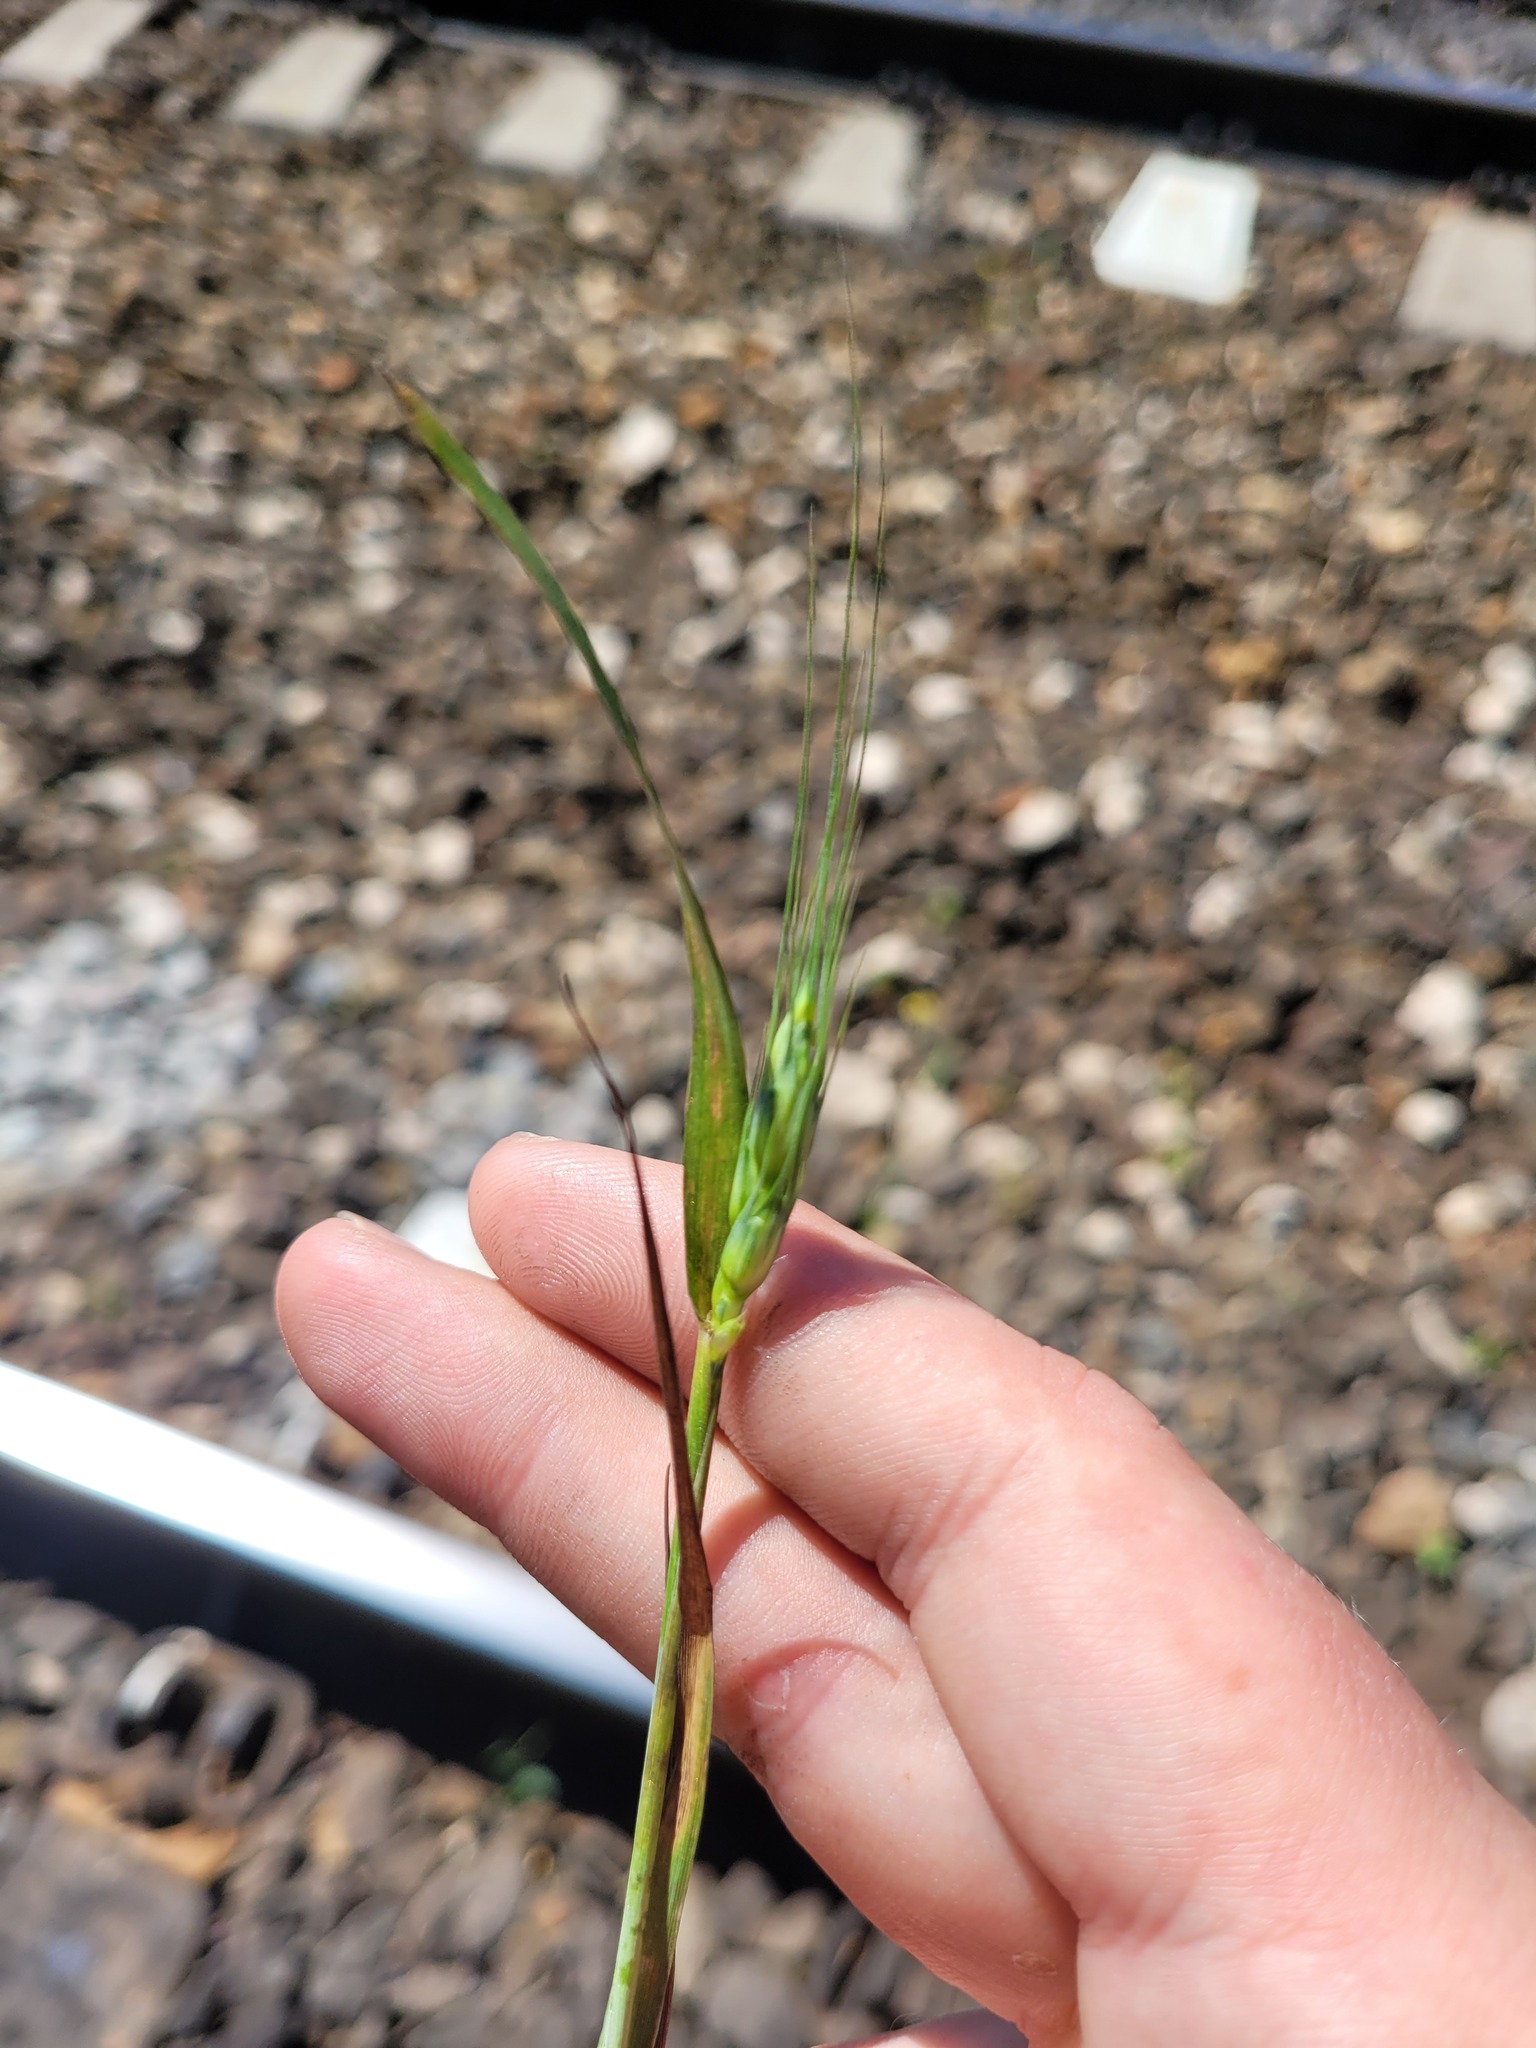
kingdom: Plantae
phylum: Tracheophyta
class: Liliopsida
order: Poales
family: Poaceae
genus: Triticum
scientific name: Triticum aestivum
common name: Common wheat
